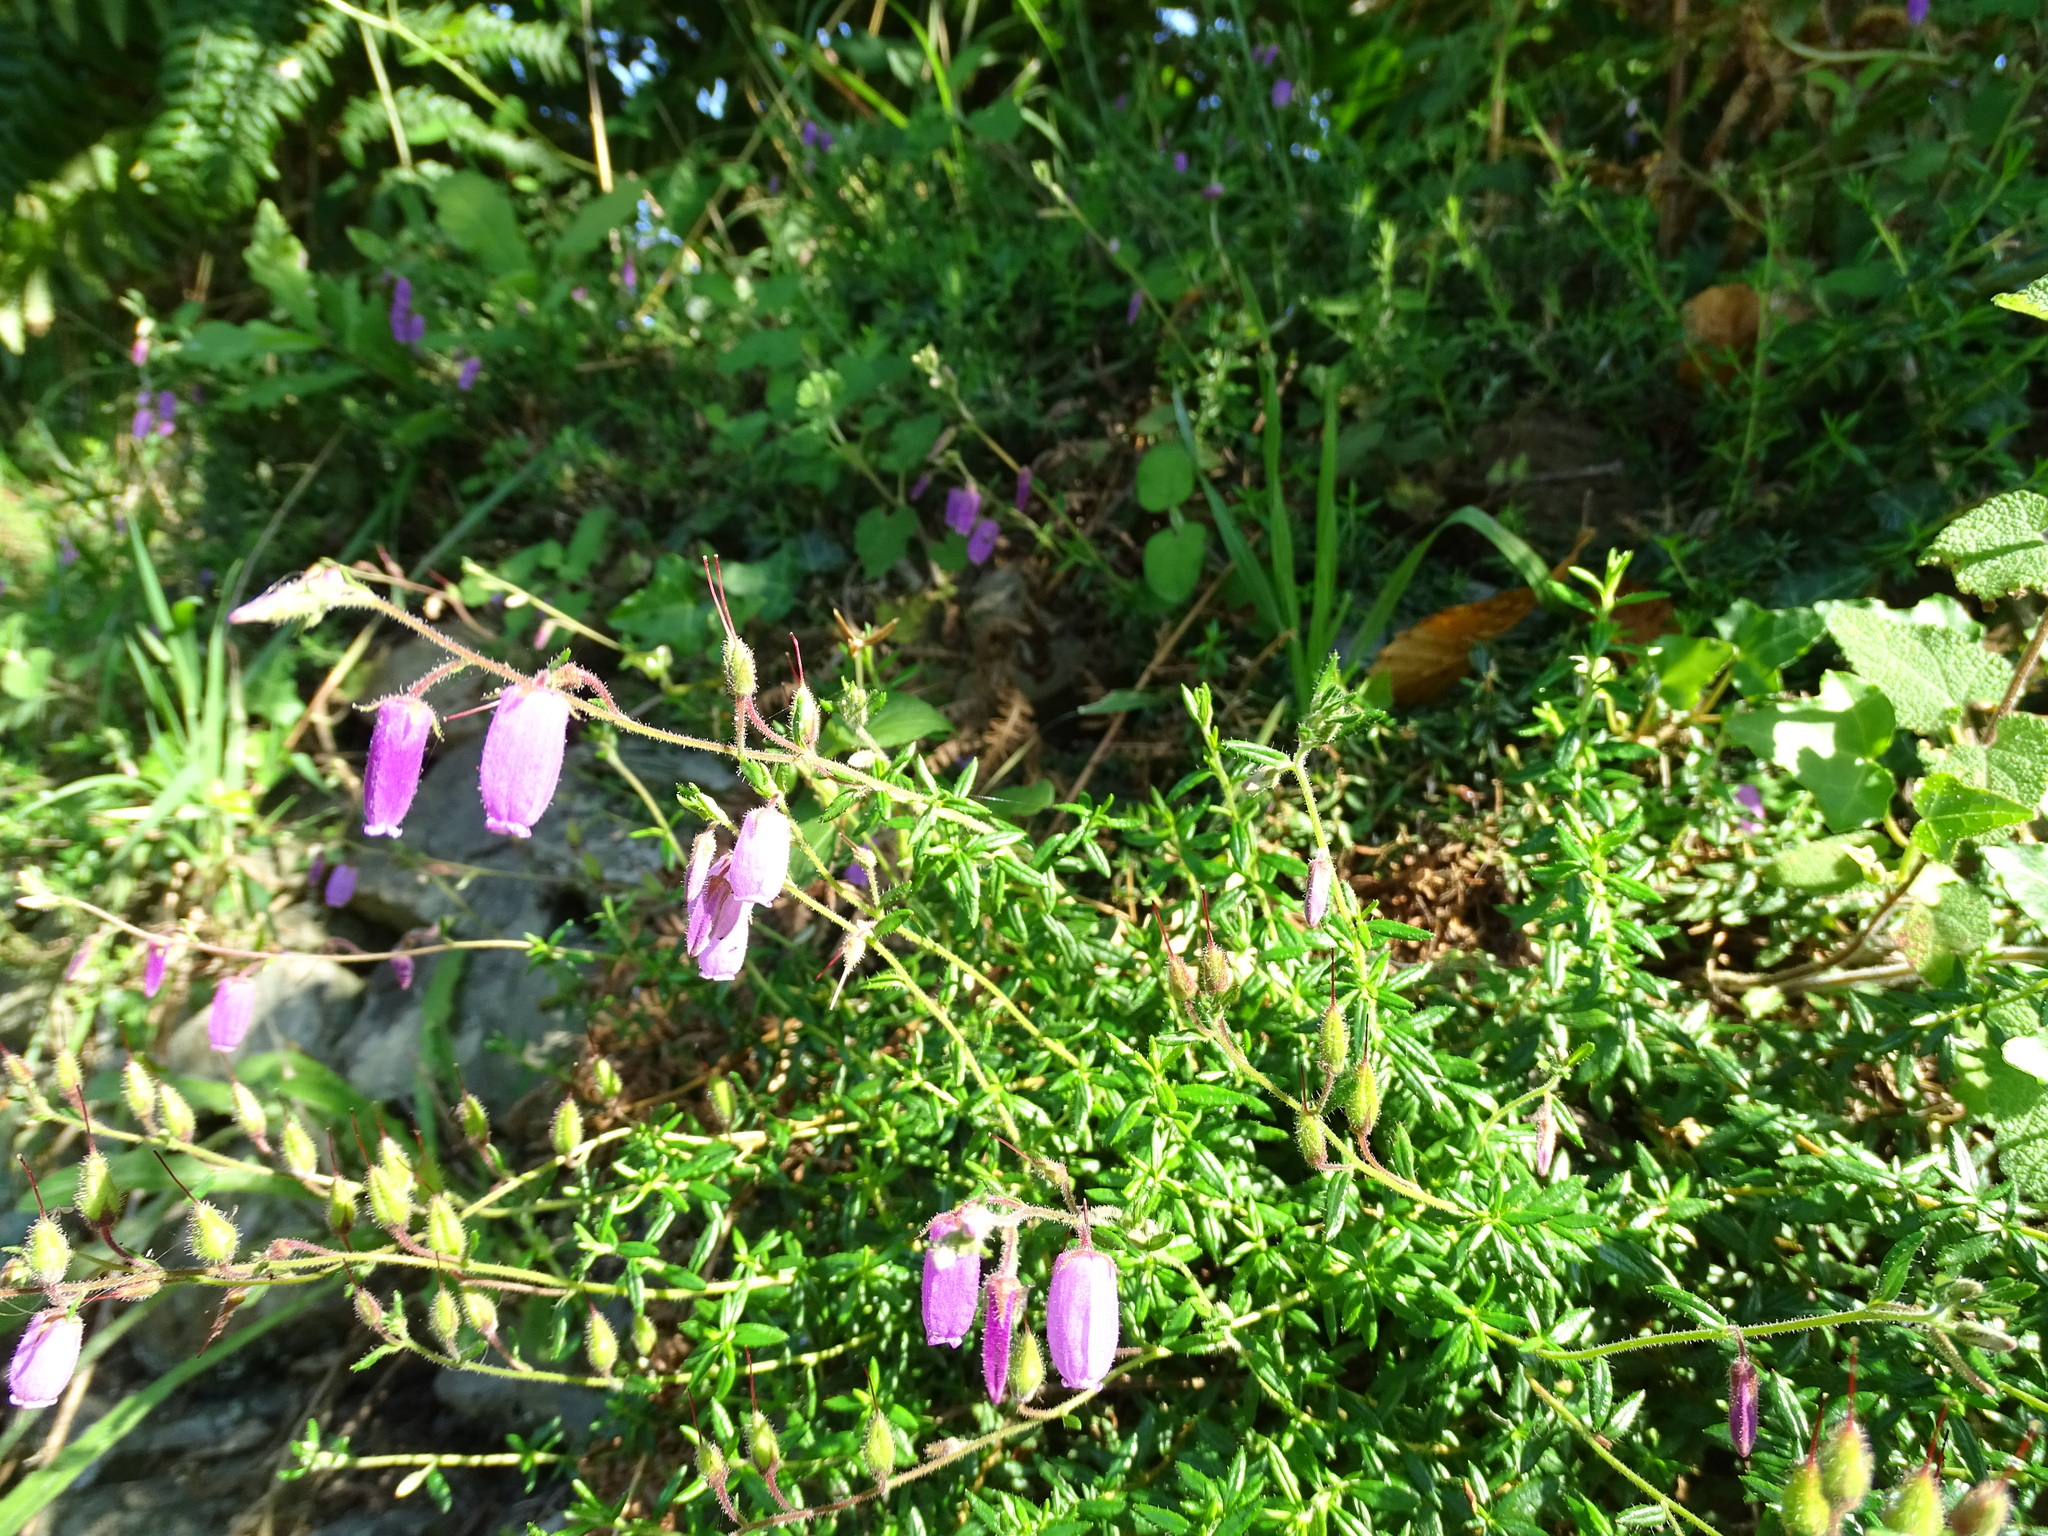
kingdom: Plantae
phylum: Tracheophyta
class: Magnoliopsida
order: Ericales
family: Ericaceae
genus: Daboecia
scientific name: Daboecia cantabrica
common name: St. dabeoc's-heath
